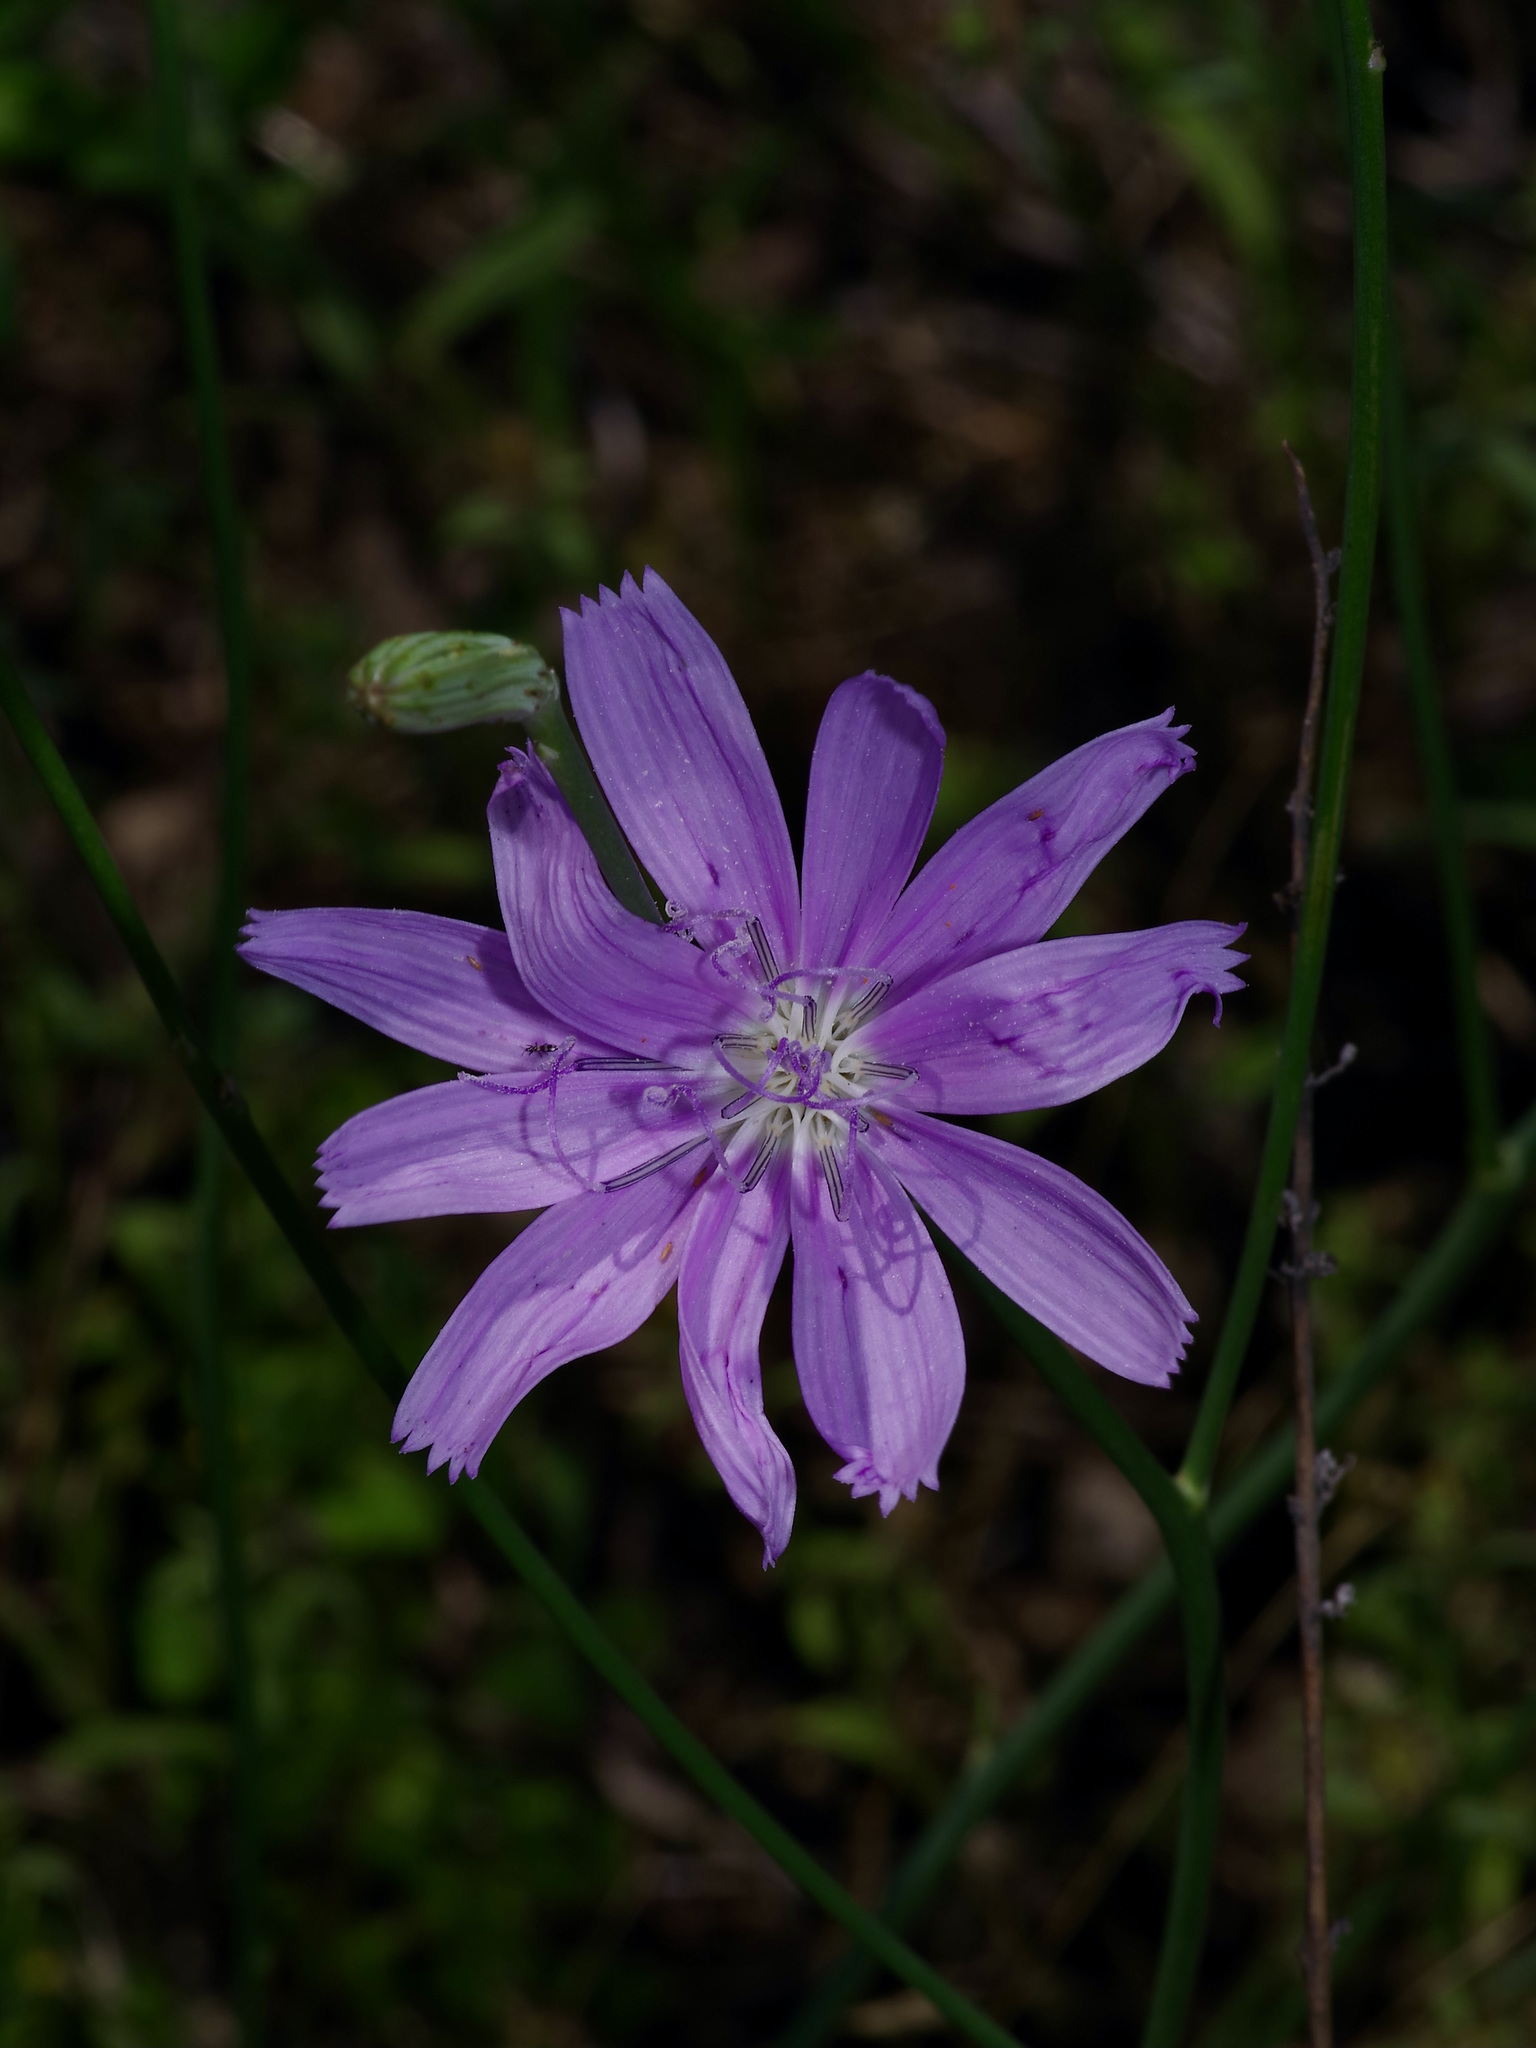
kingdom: Plantae
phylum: Tracheophyta
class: Magnoliopsida
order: Asterales
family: Asteraceae
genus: Lygodesmia
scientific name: Lygodesmia texana
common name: Texas skeleton-plant
